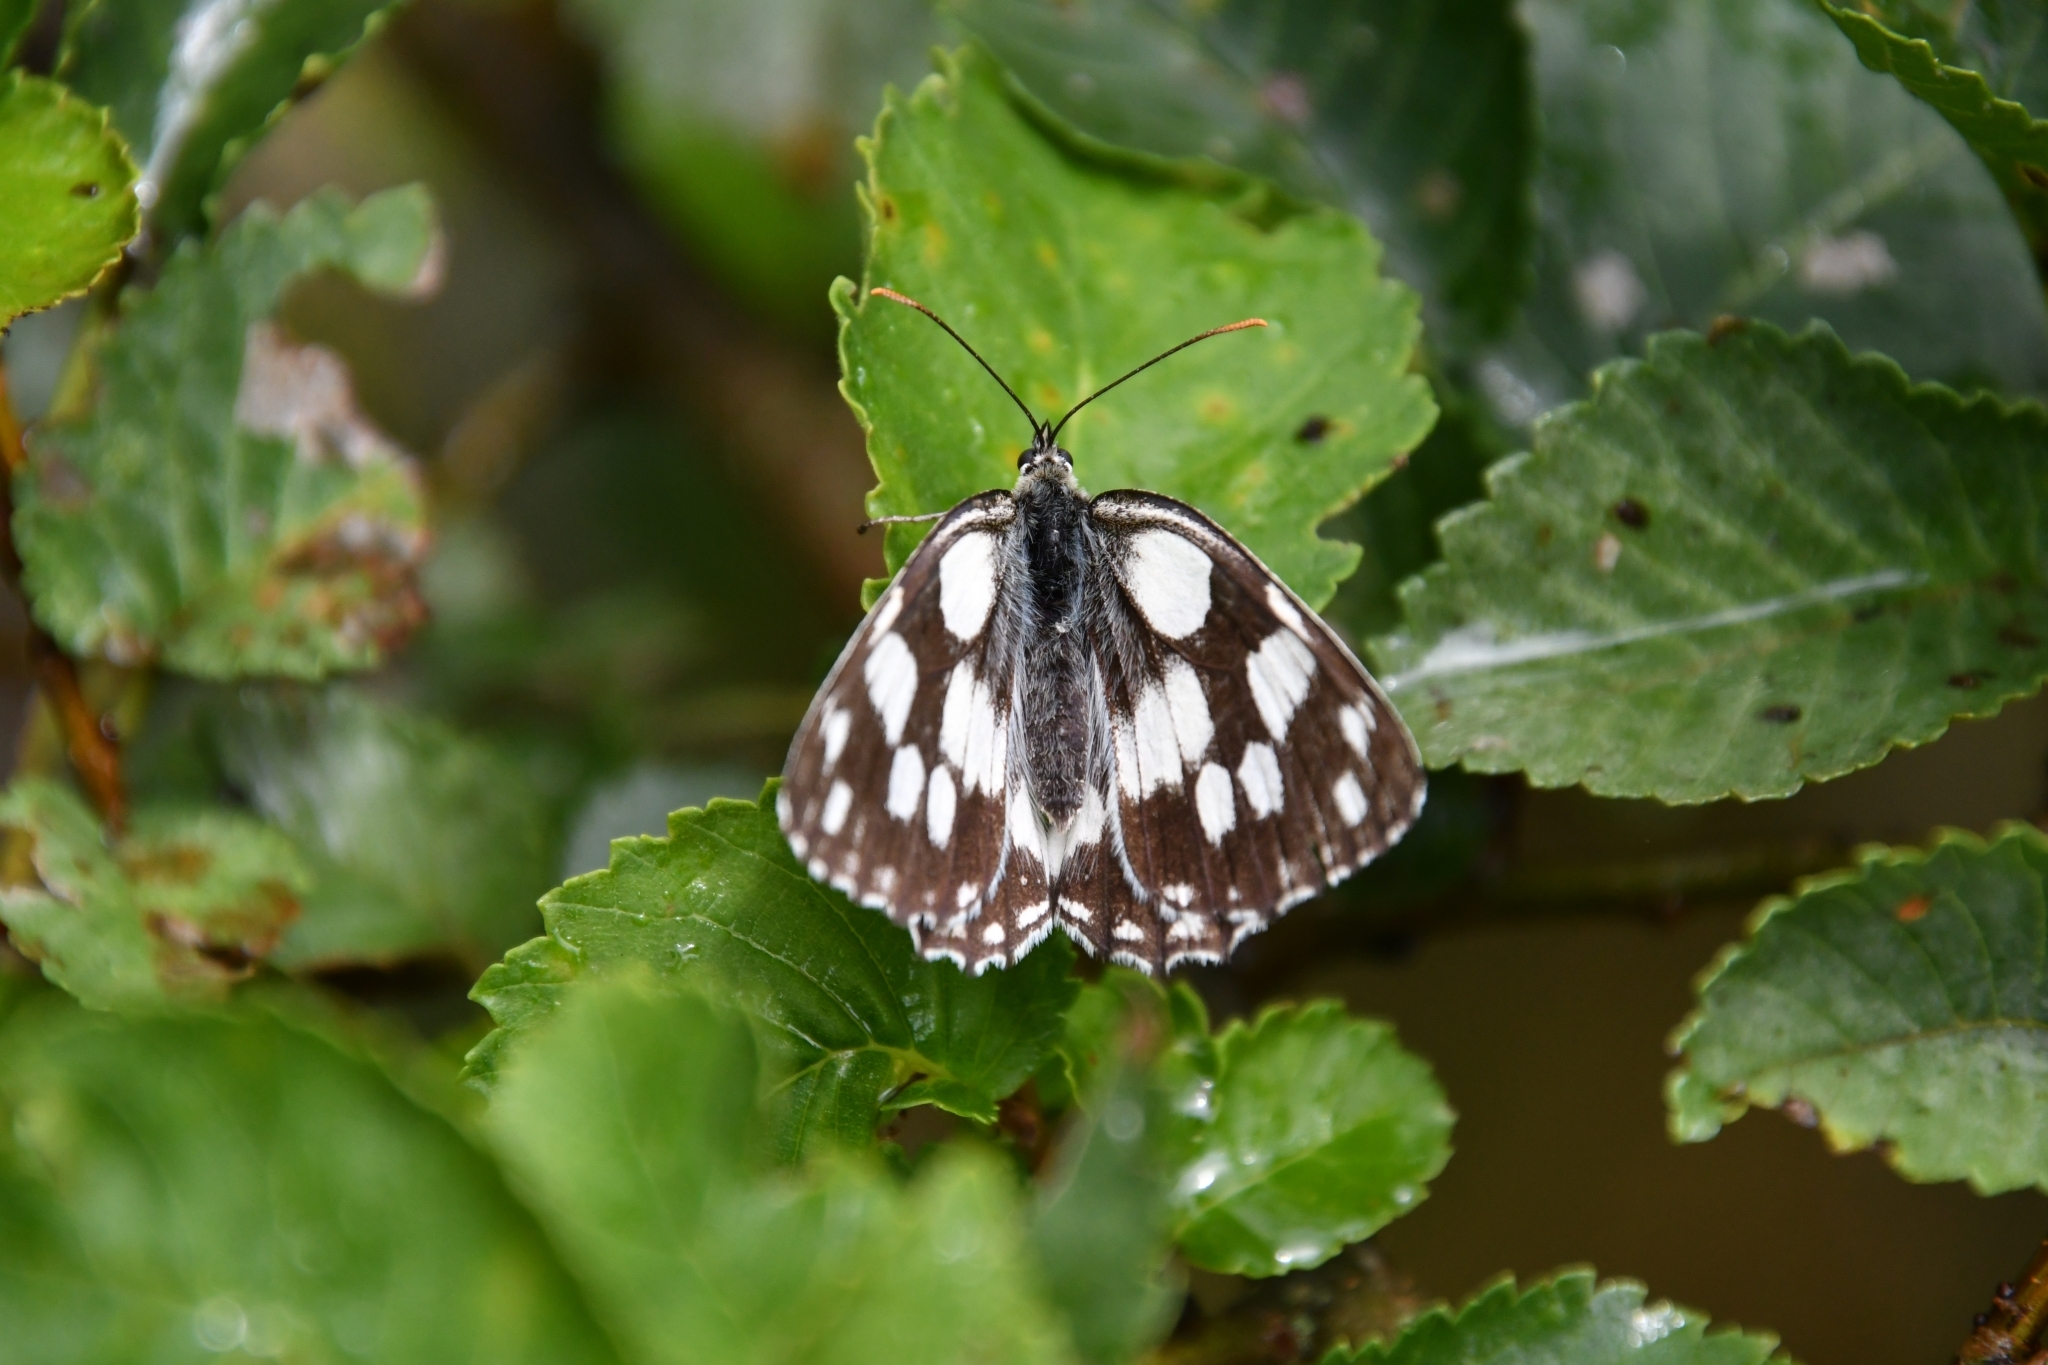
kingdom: Animalia
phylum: Arthropoda
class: Insecta
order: Lepidoptera
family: Nymphalidae
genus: Melanargia
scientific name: Melanargia galathea
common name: Marbled white
